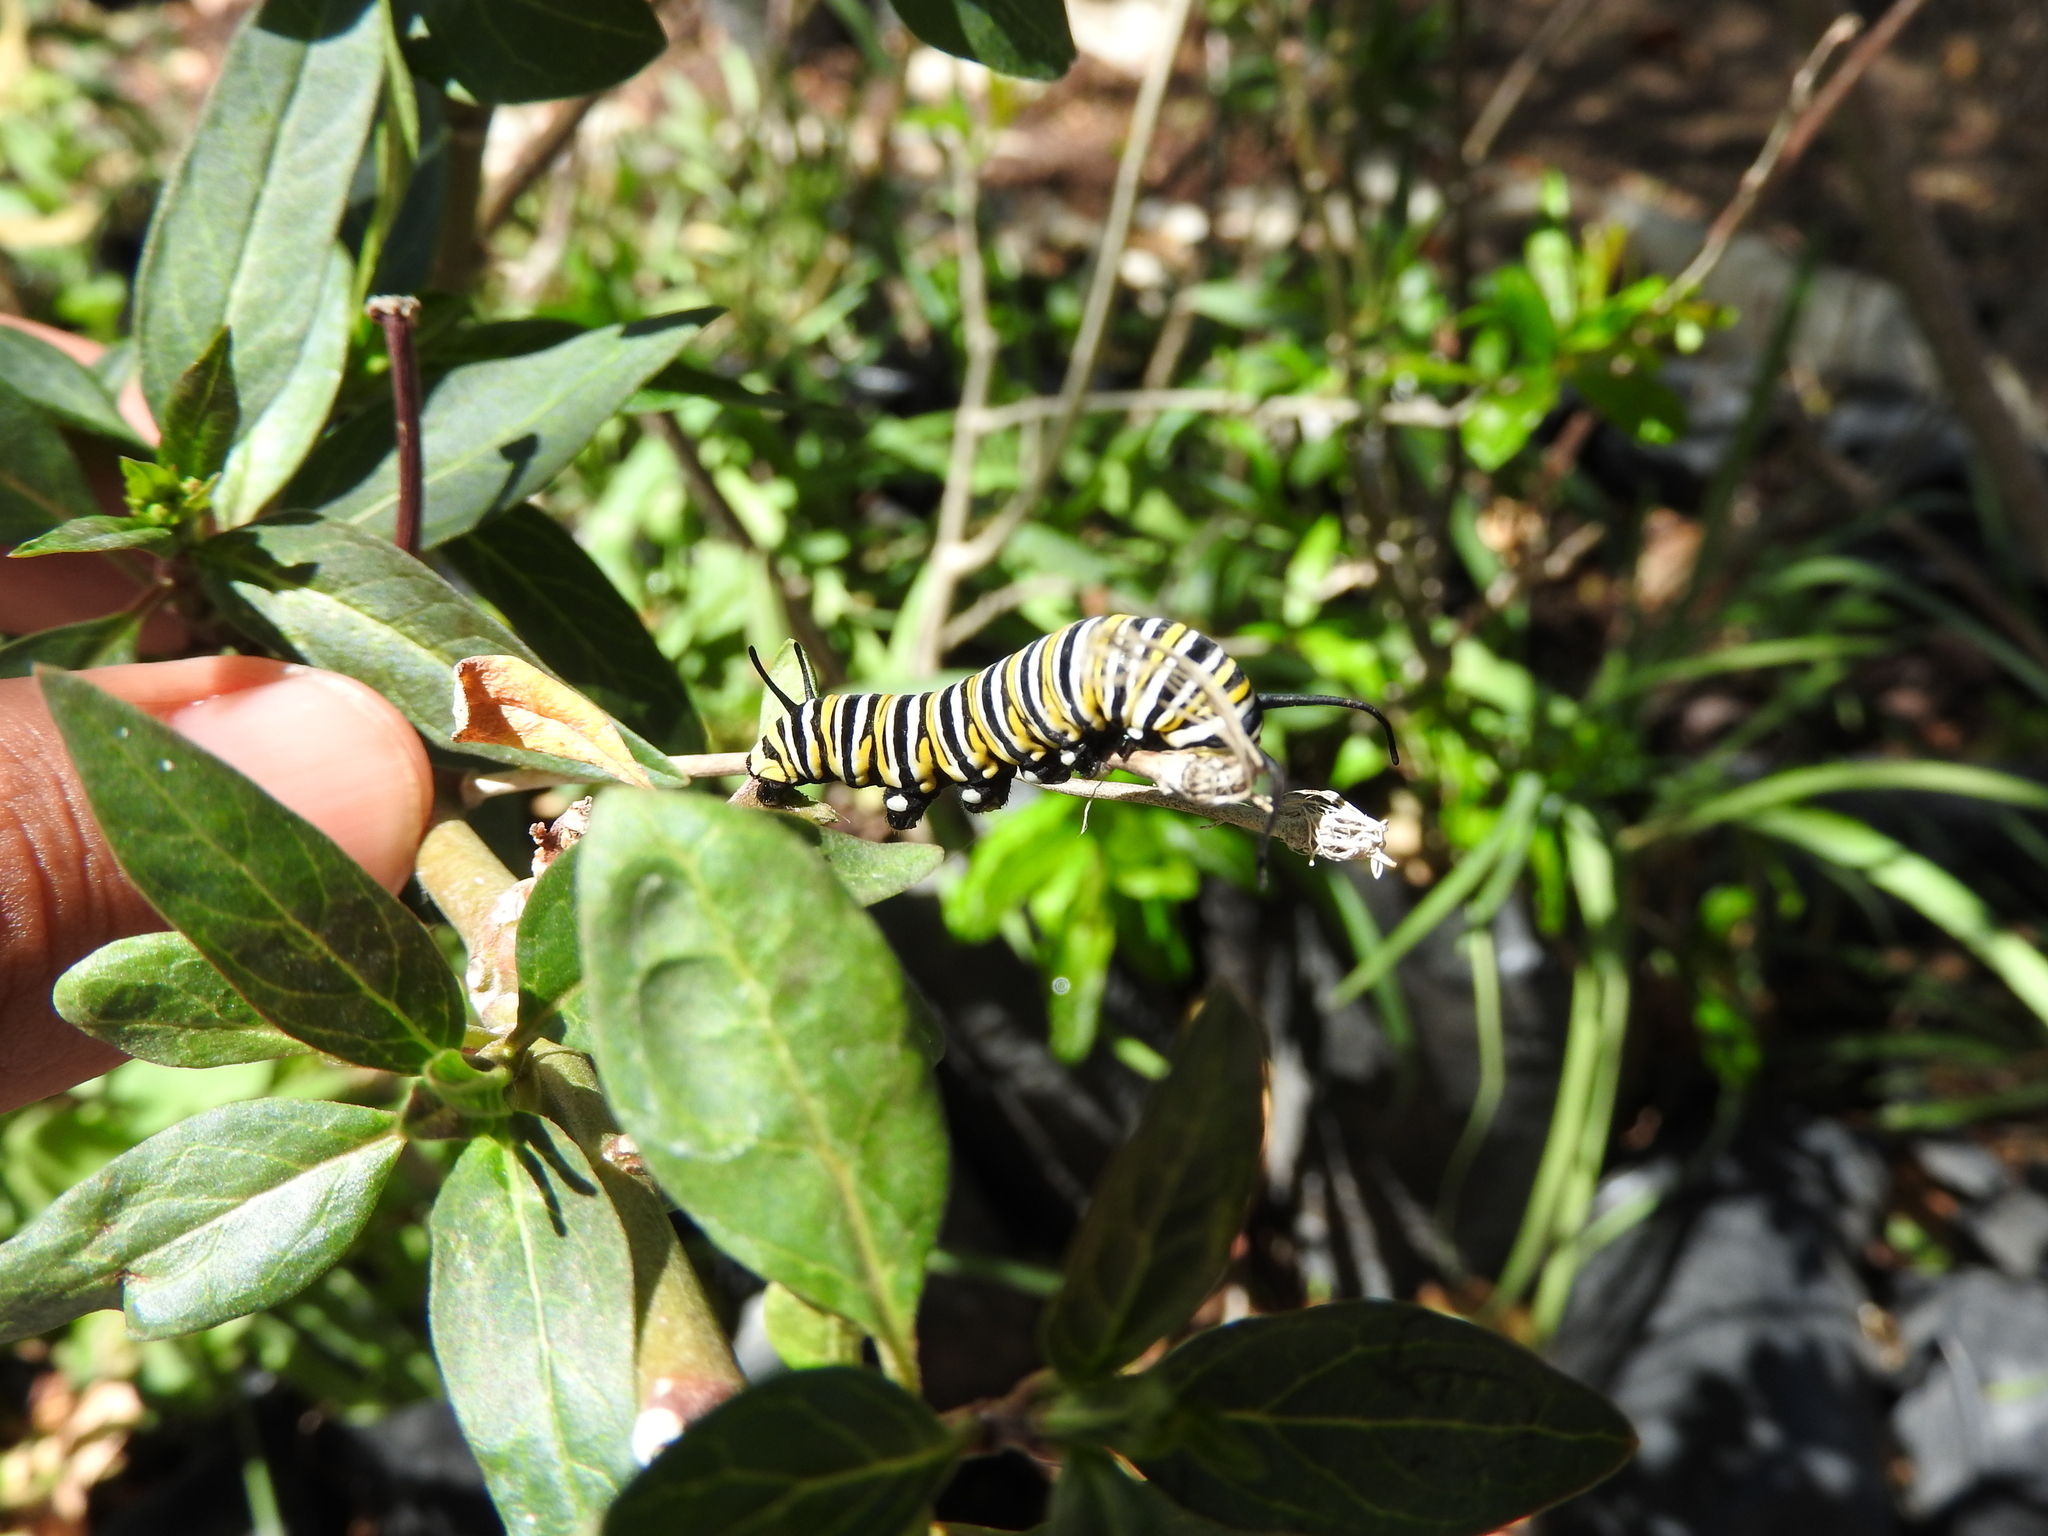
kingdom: Animalia
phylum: Arthropoda
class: Insecta
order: Lepidoptera
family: Nymphalidae
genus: Danaus
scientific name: Danaus plexippus
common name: Monarch
